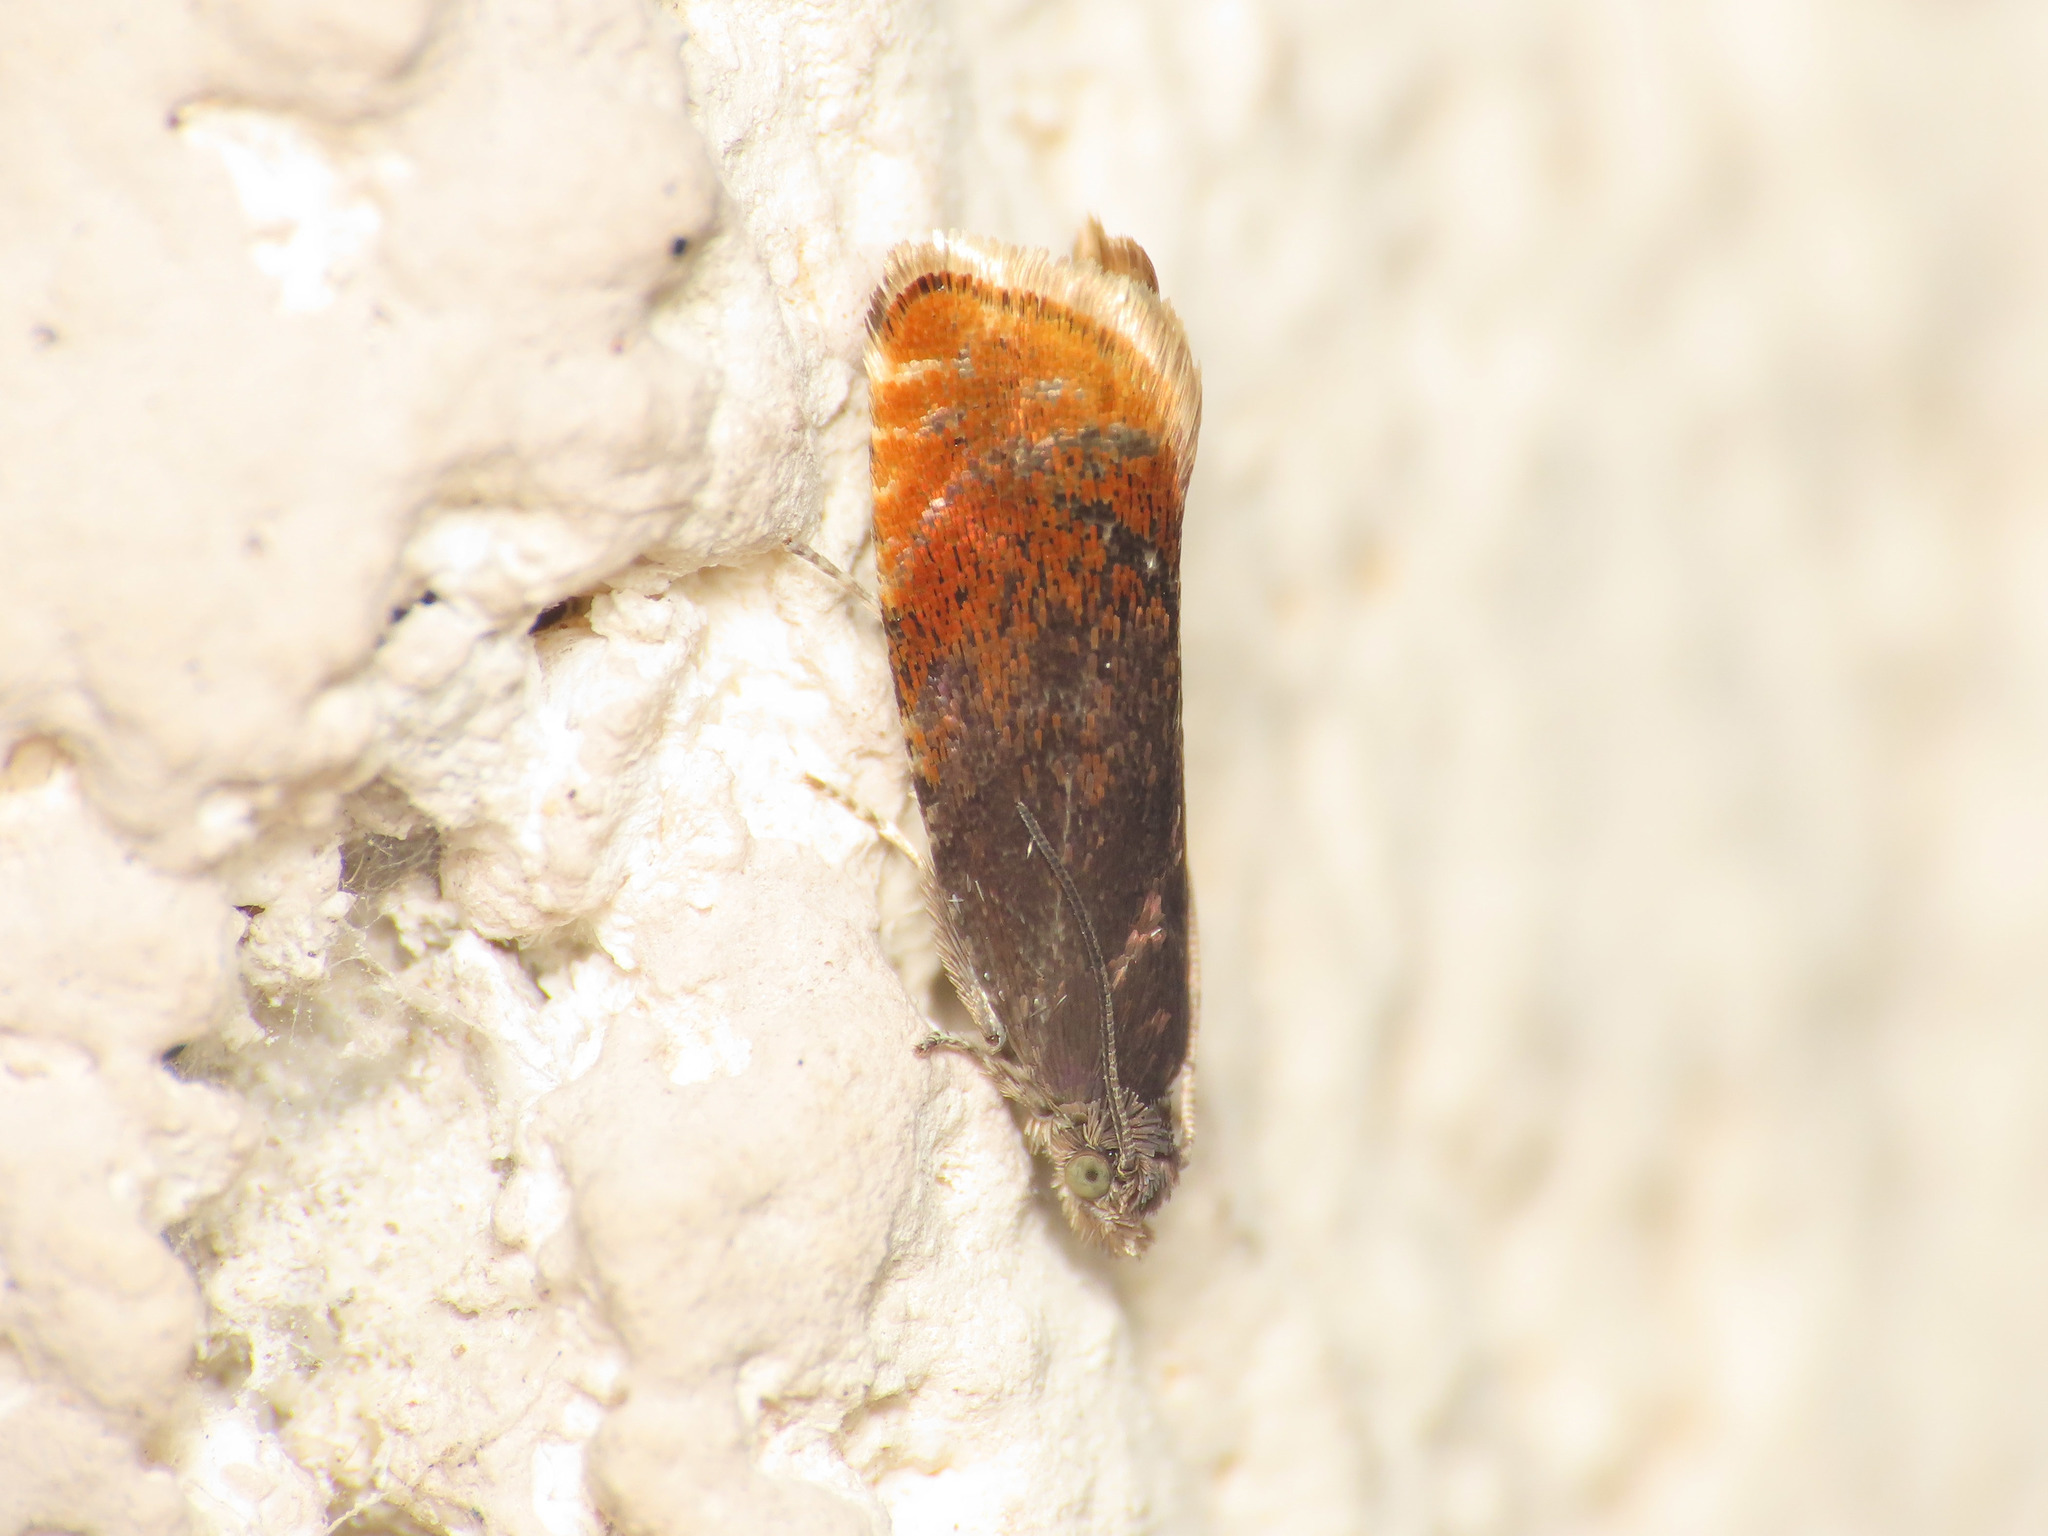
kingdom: Animalia
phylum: Arthropoda
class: Insecta
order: Lepidoptera
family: Tortricidae
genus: Pammene
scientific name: Pammene rhediella
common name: Fruitlet-mining tortrix
